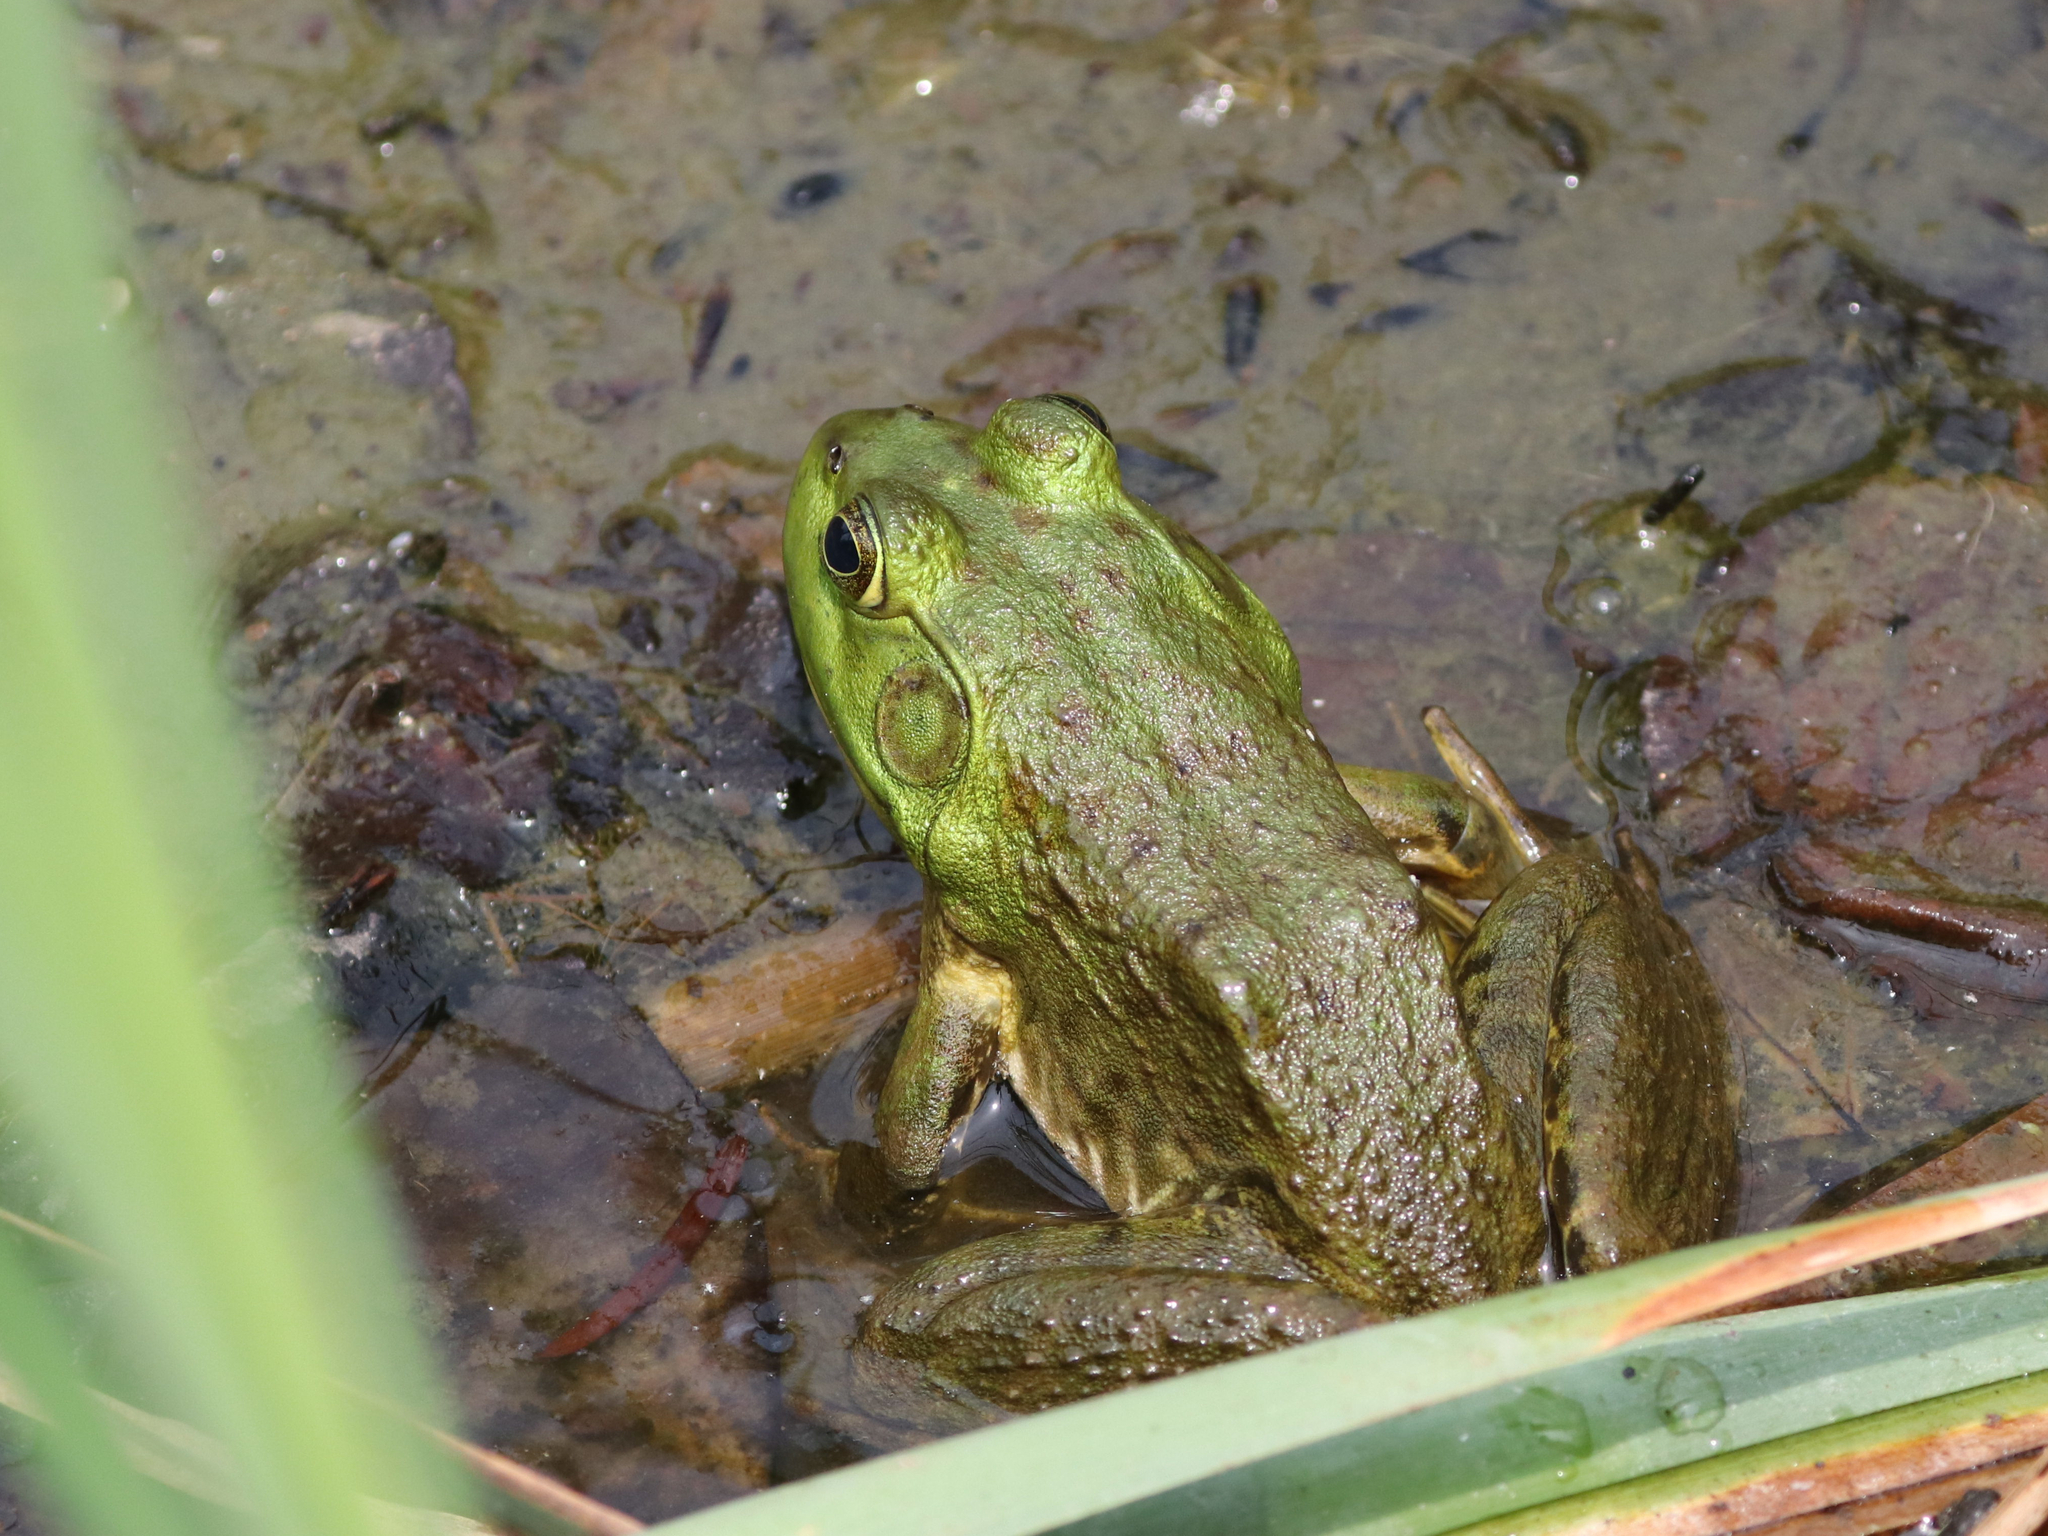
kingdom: Animalia
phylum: Chordata
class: Amphibia
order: Anura
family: Ranidae
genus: Lithobates
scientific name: Lithobates catesbeianus
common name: American bullfrog
